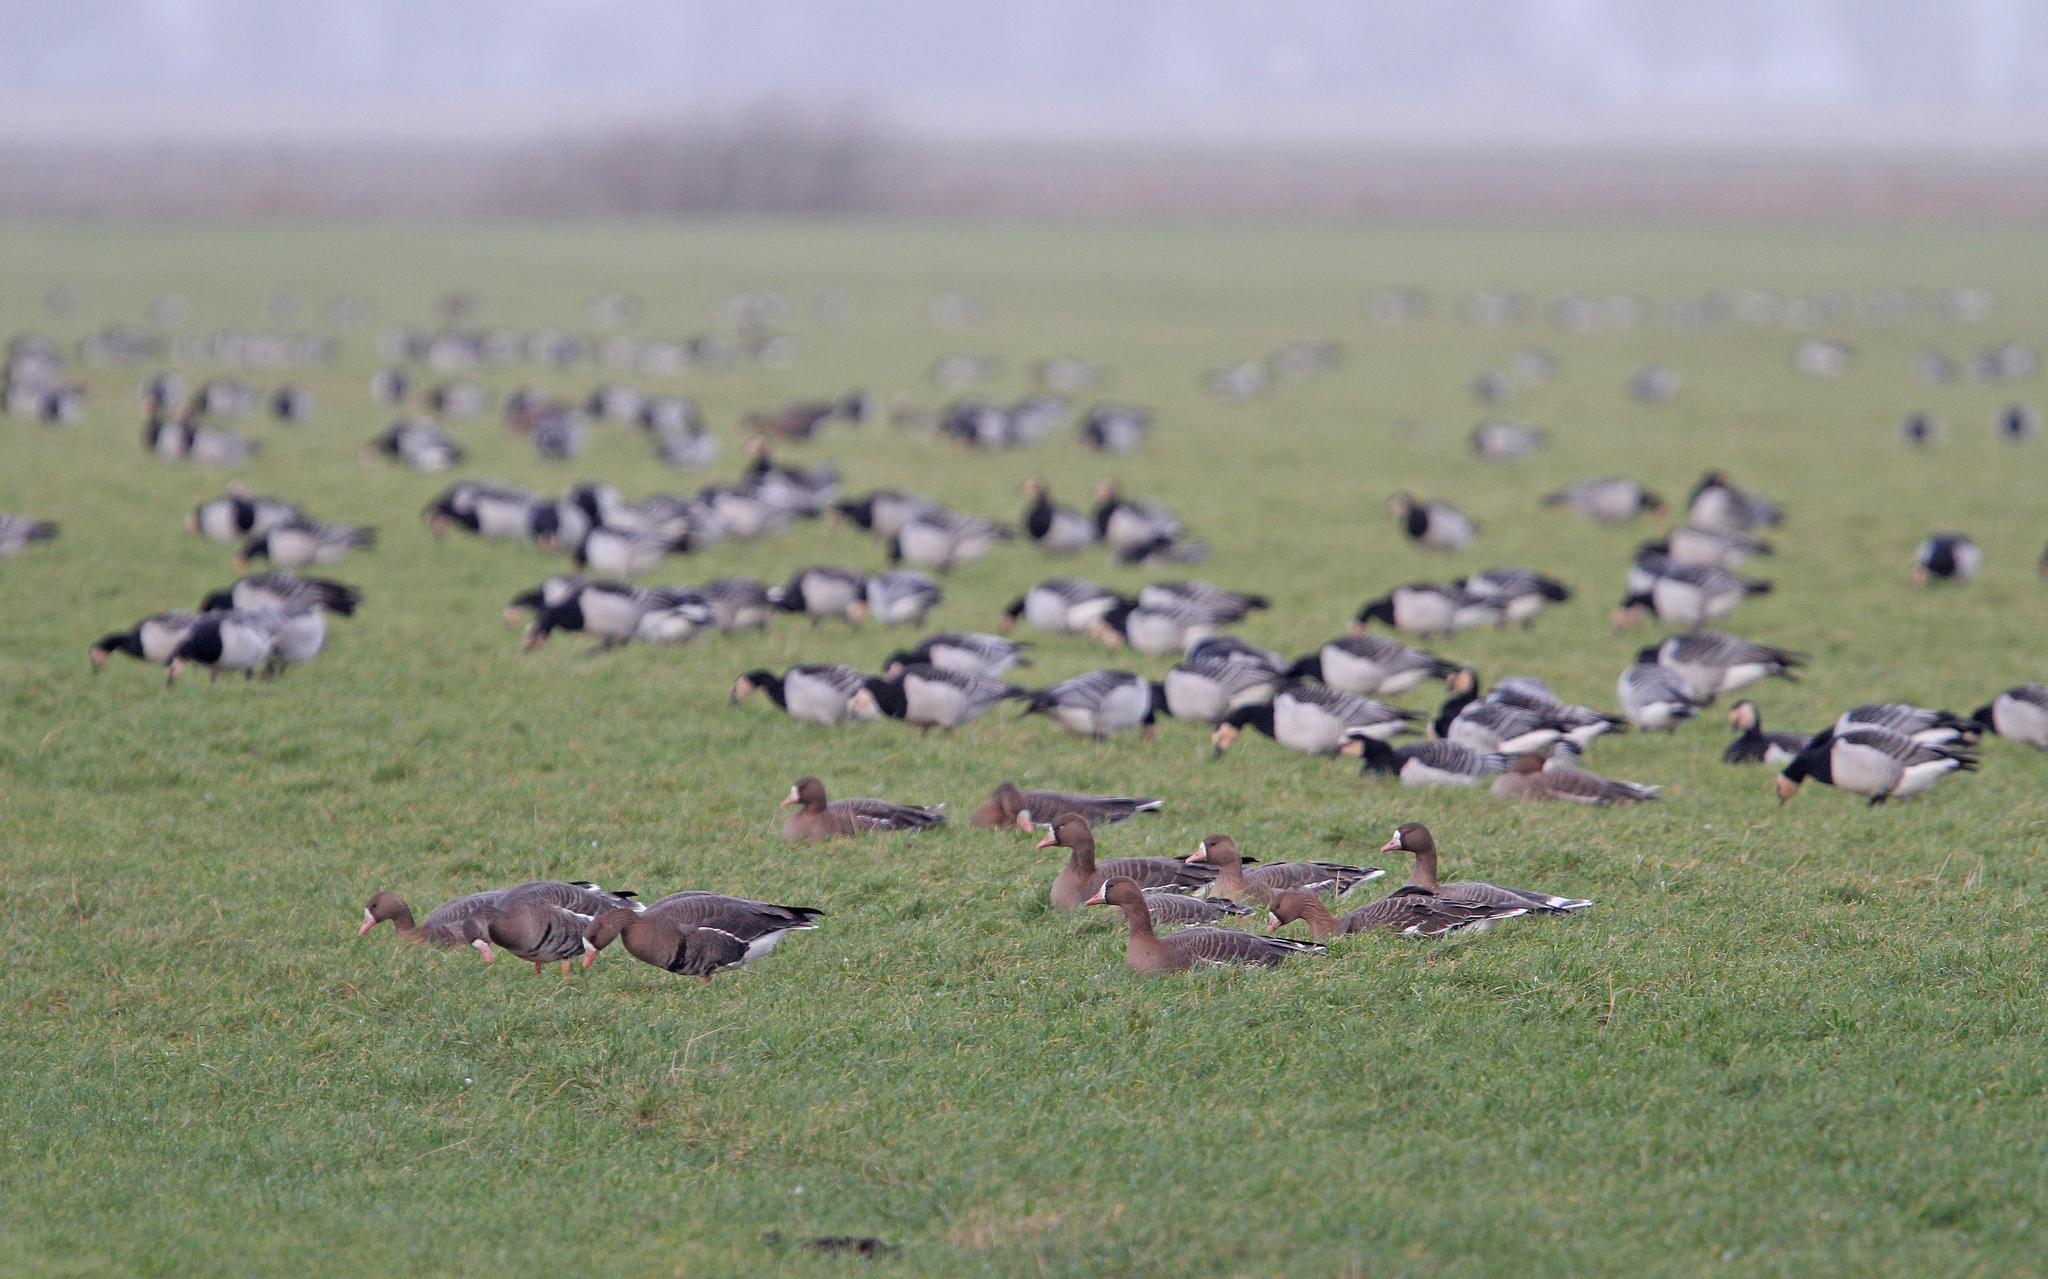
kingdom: Animalia
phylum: Chordata
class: Aves
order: Anseriformes
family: Anatidae
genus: Anser
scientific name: Anser albifrons
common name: Greater white-fronted goose
